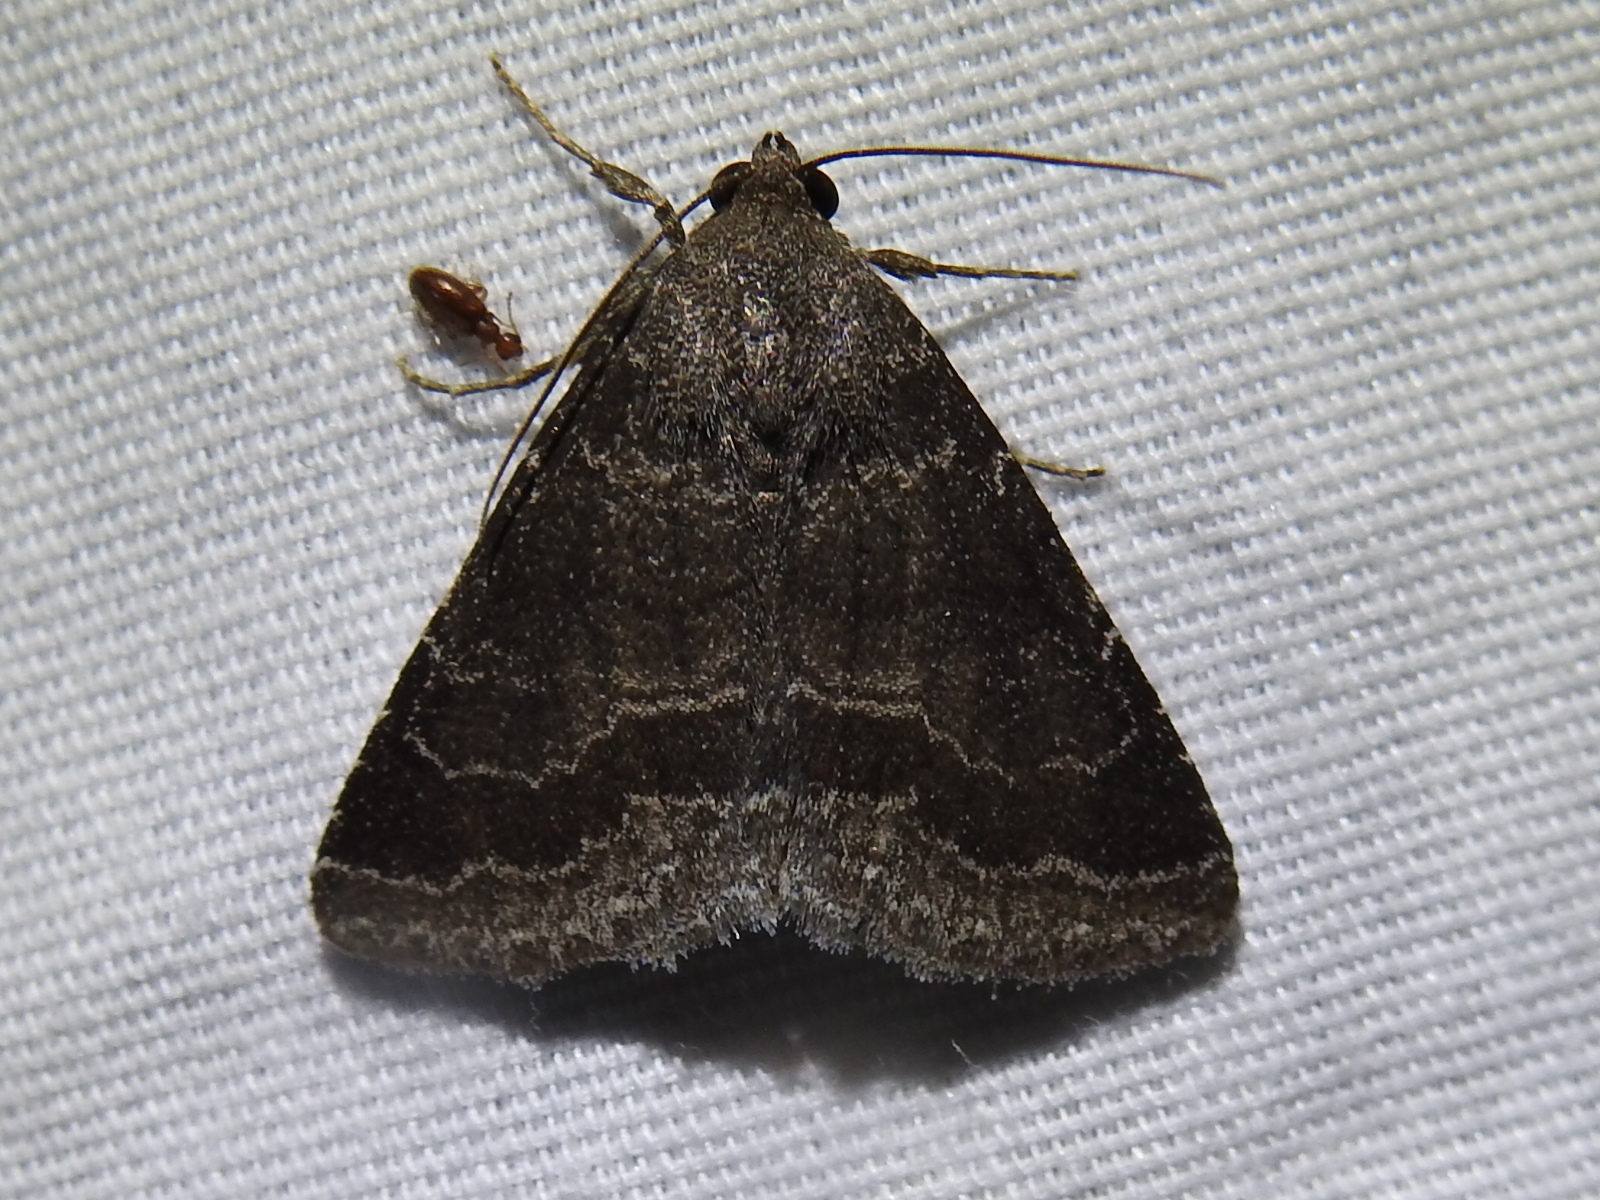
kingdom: Animalia
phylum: Arthropoda
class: Insecta
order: Lepidoptera
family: Erebidae
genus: Matigramma
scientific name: Matigramma pulverilinea
